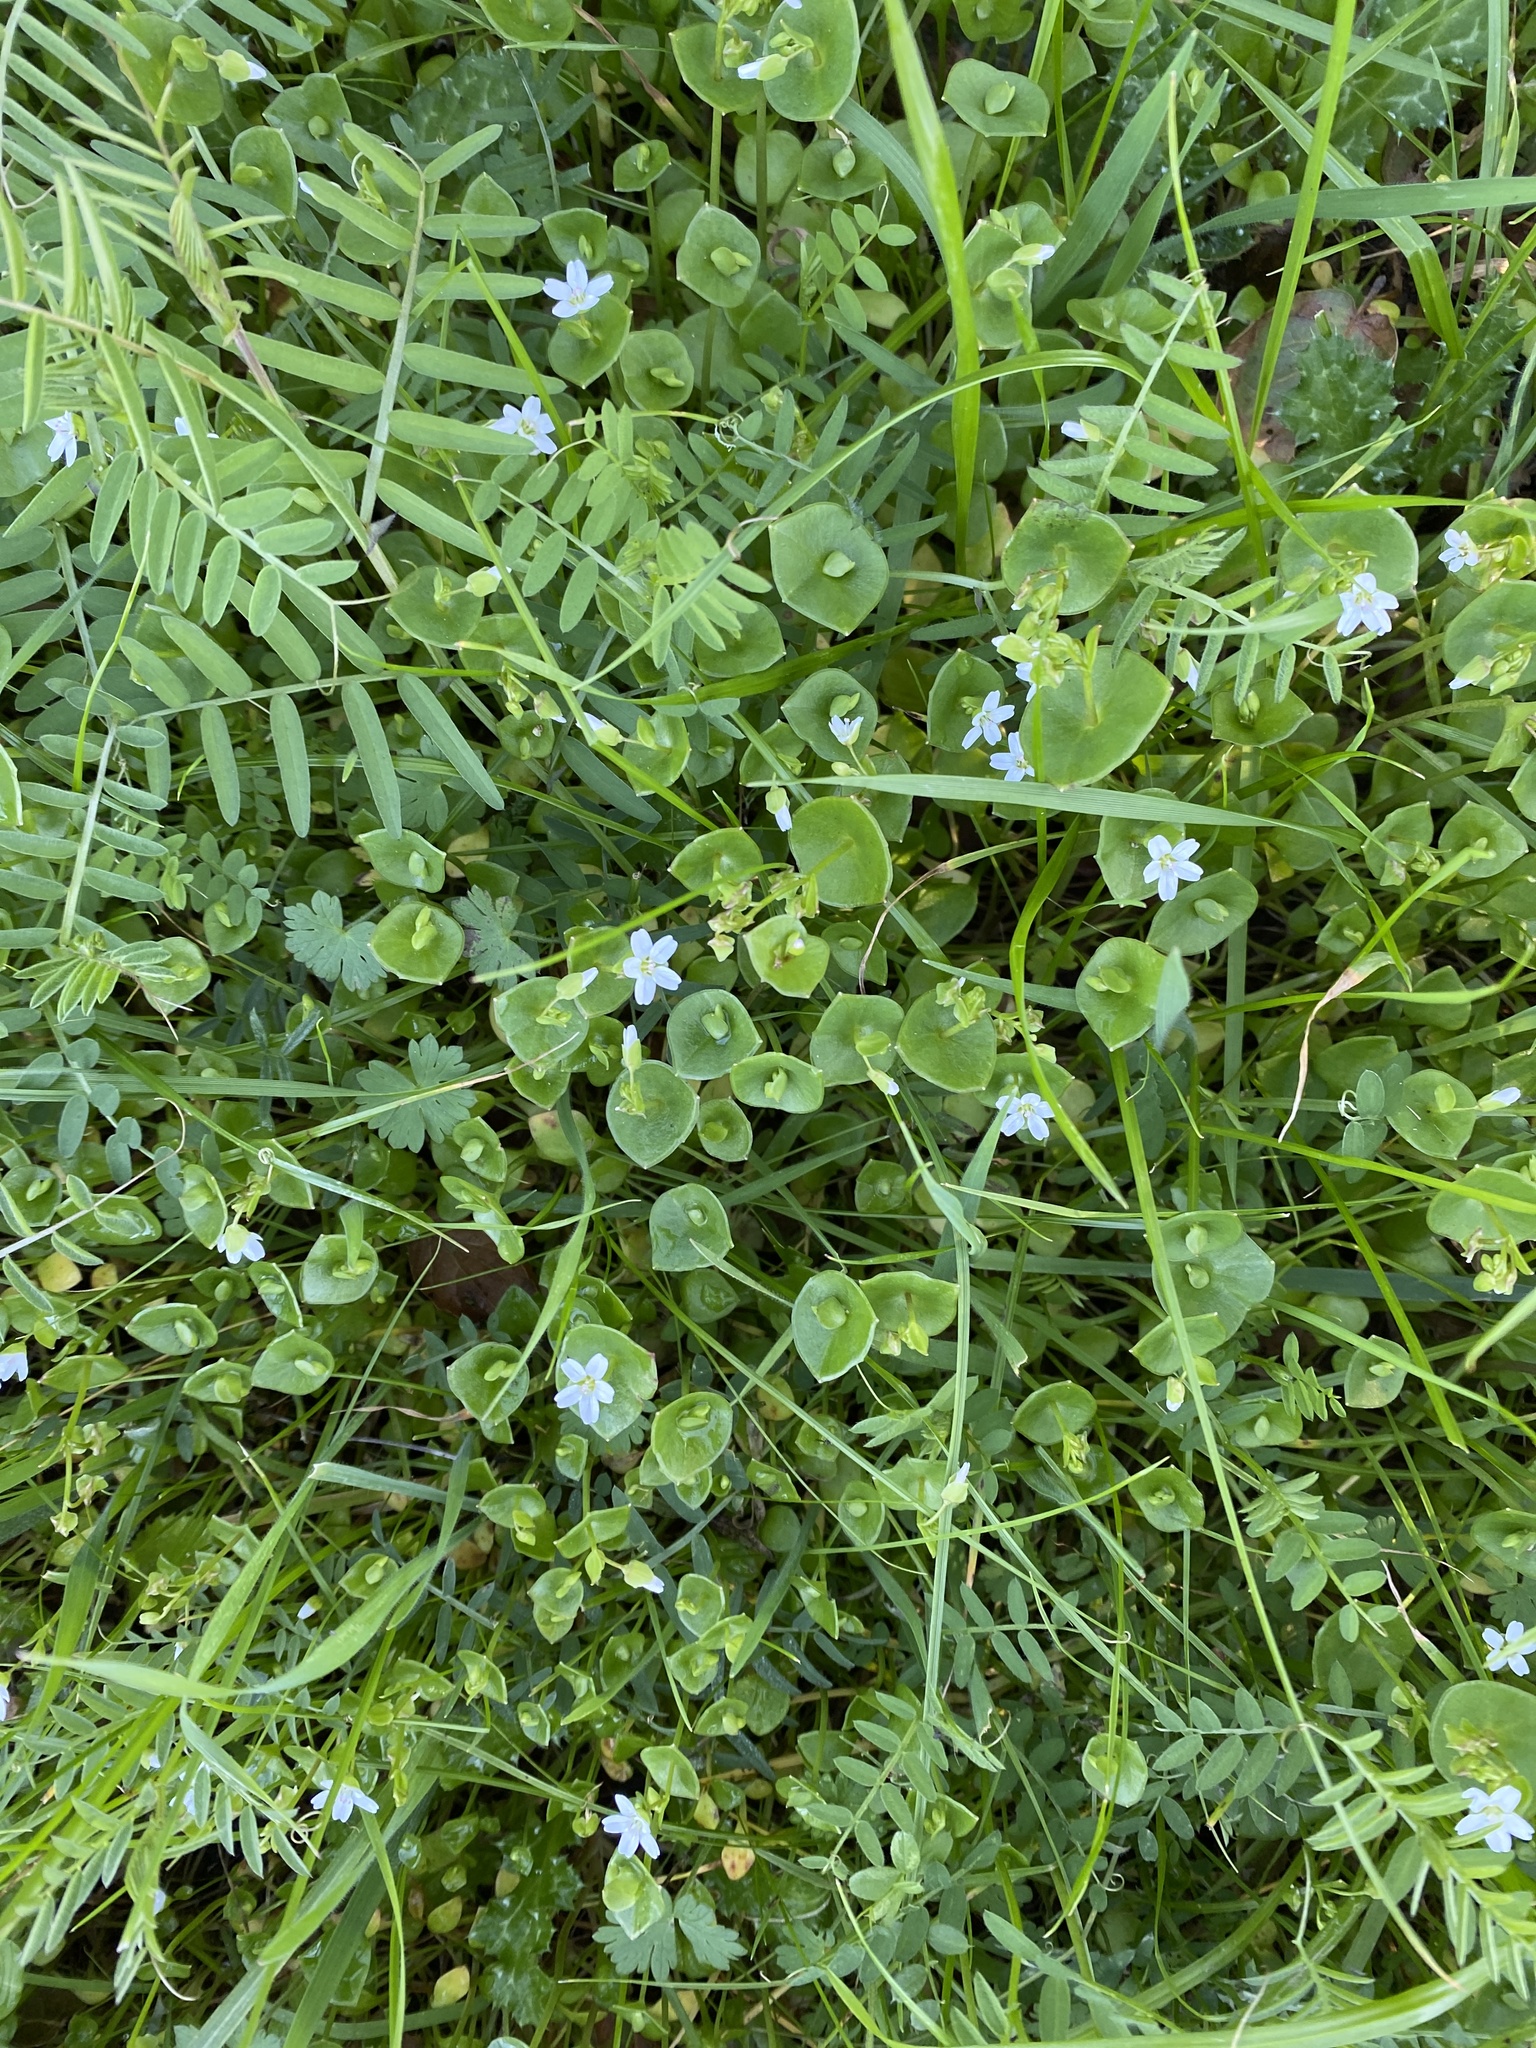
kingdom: Plantae
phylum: Tracheophyta
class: Magnoliopsida
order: Caryophyllales
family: Montiaceae
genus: Claytonia
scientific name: Claytonia perfoliata
